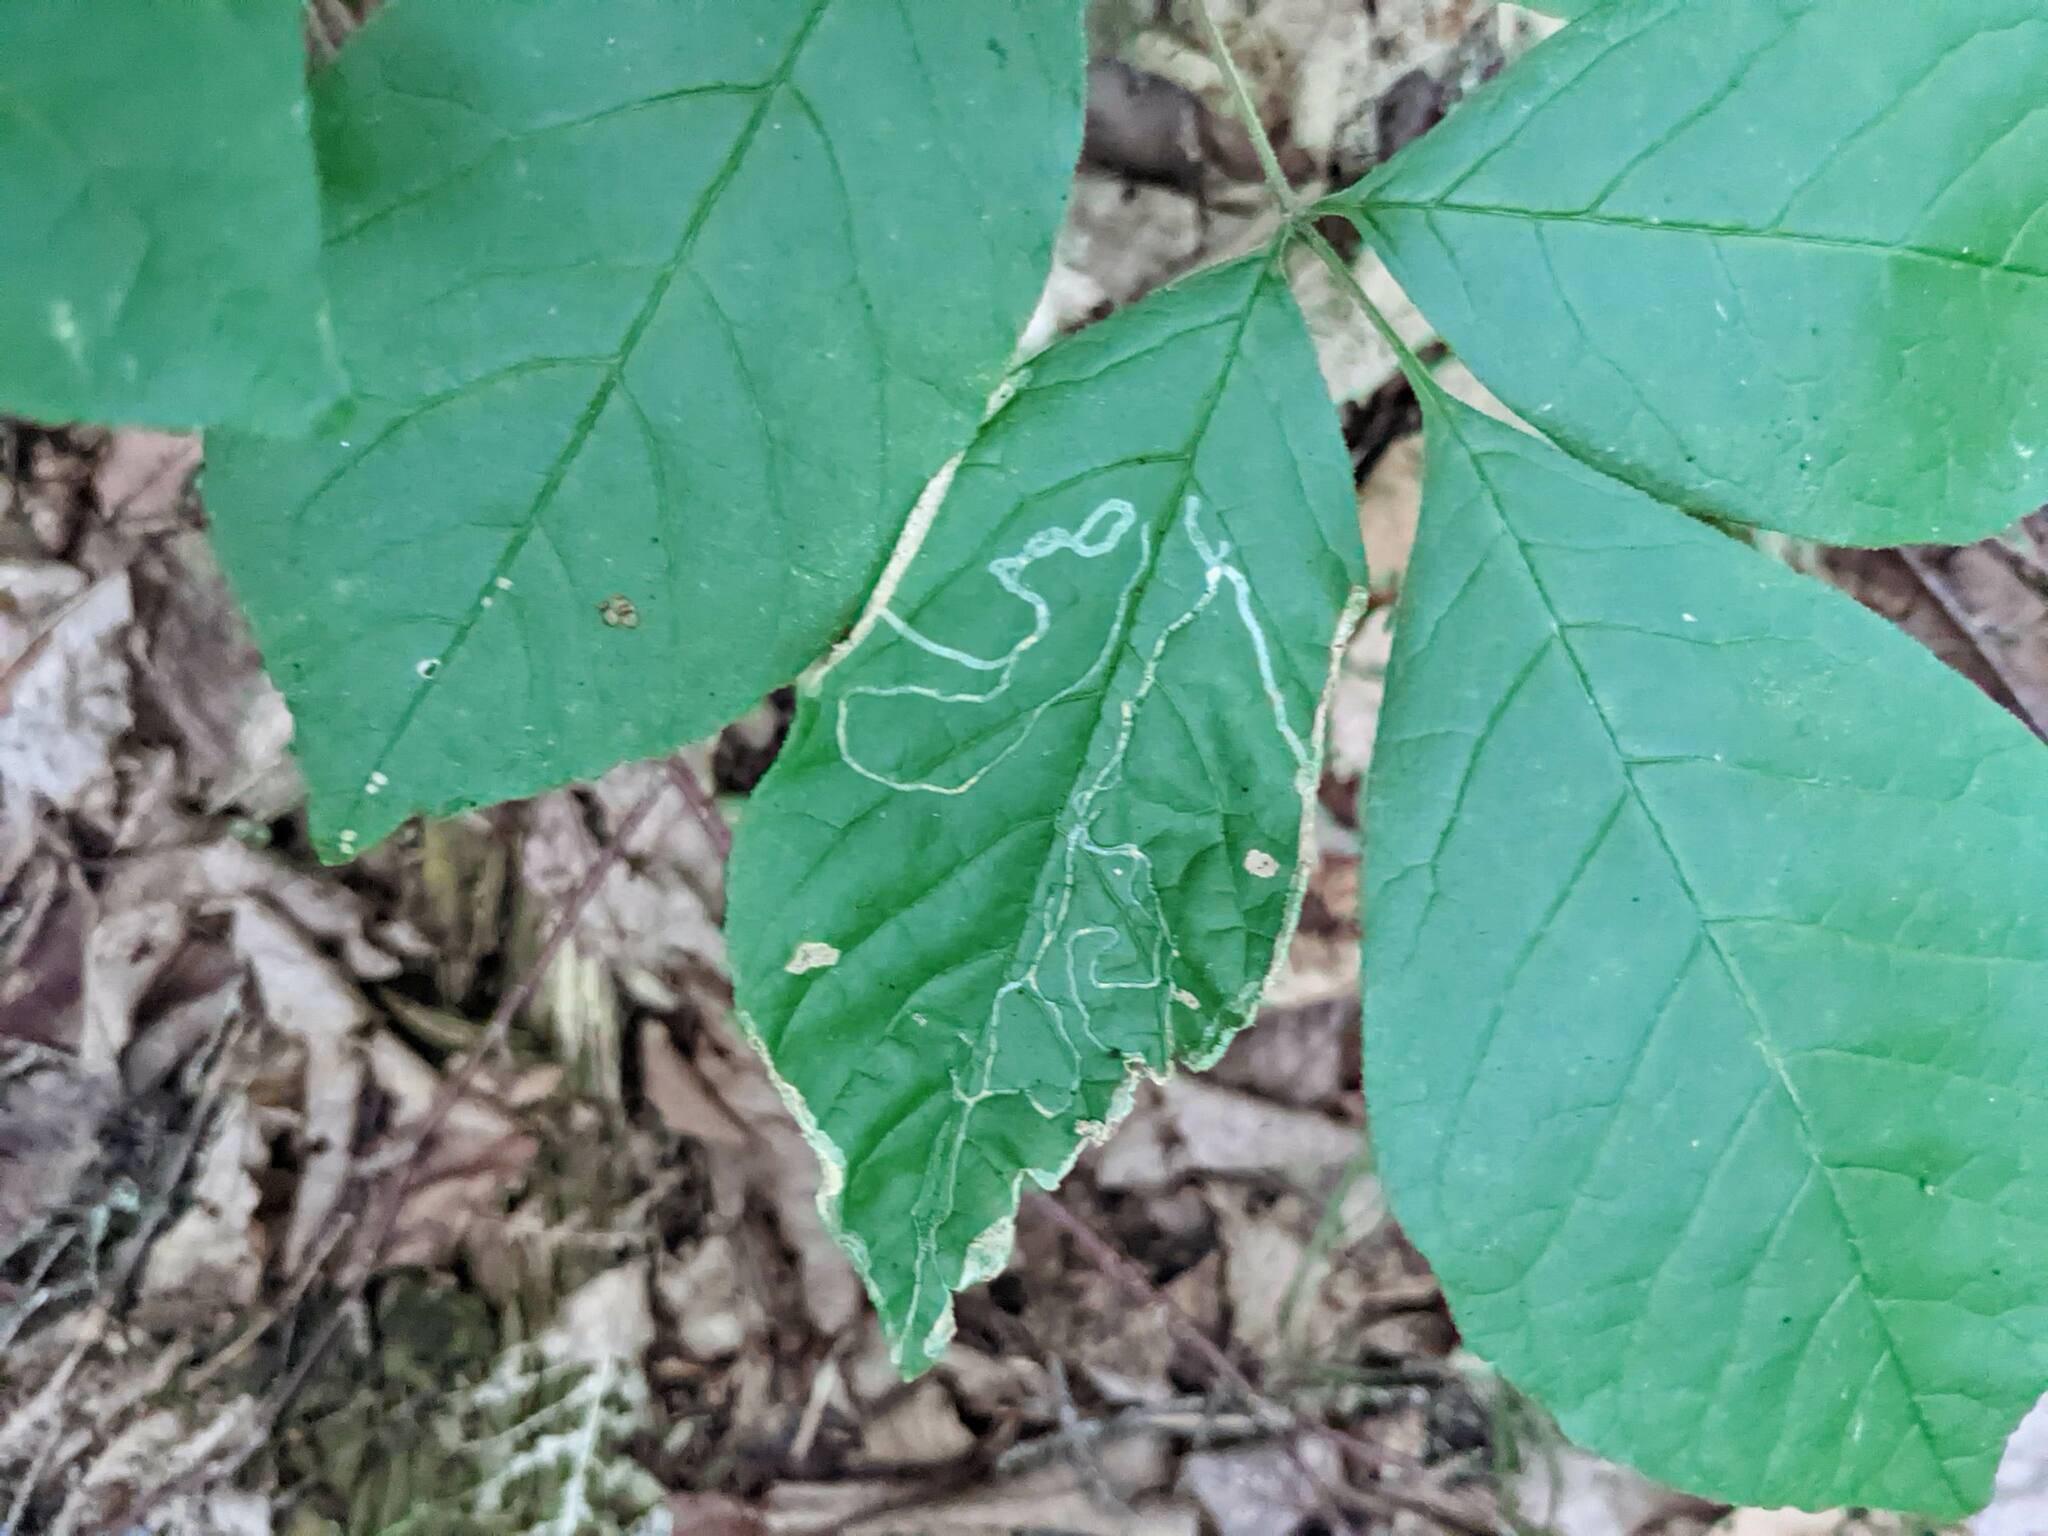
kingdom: Animalia
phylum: Arthropoda
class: Insecta
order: Lepidoptera
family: Gracillariidae
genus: Caloptilia
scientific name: Caloptilia fraxinella
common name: Ash leaf cone roller
